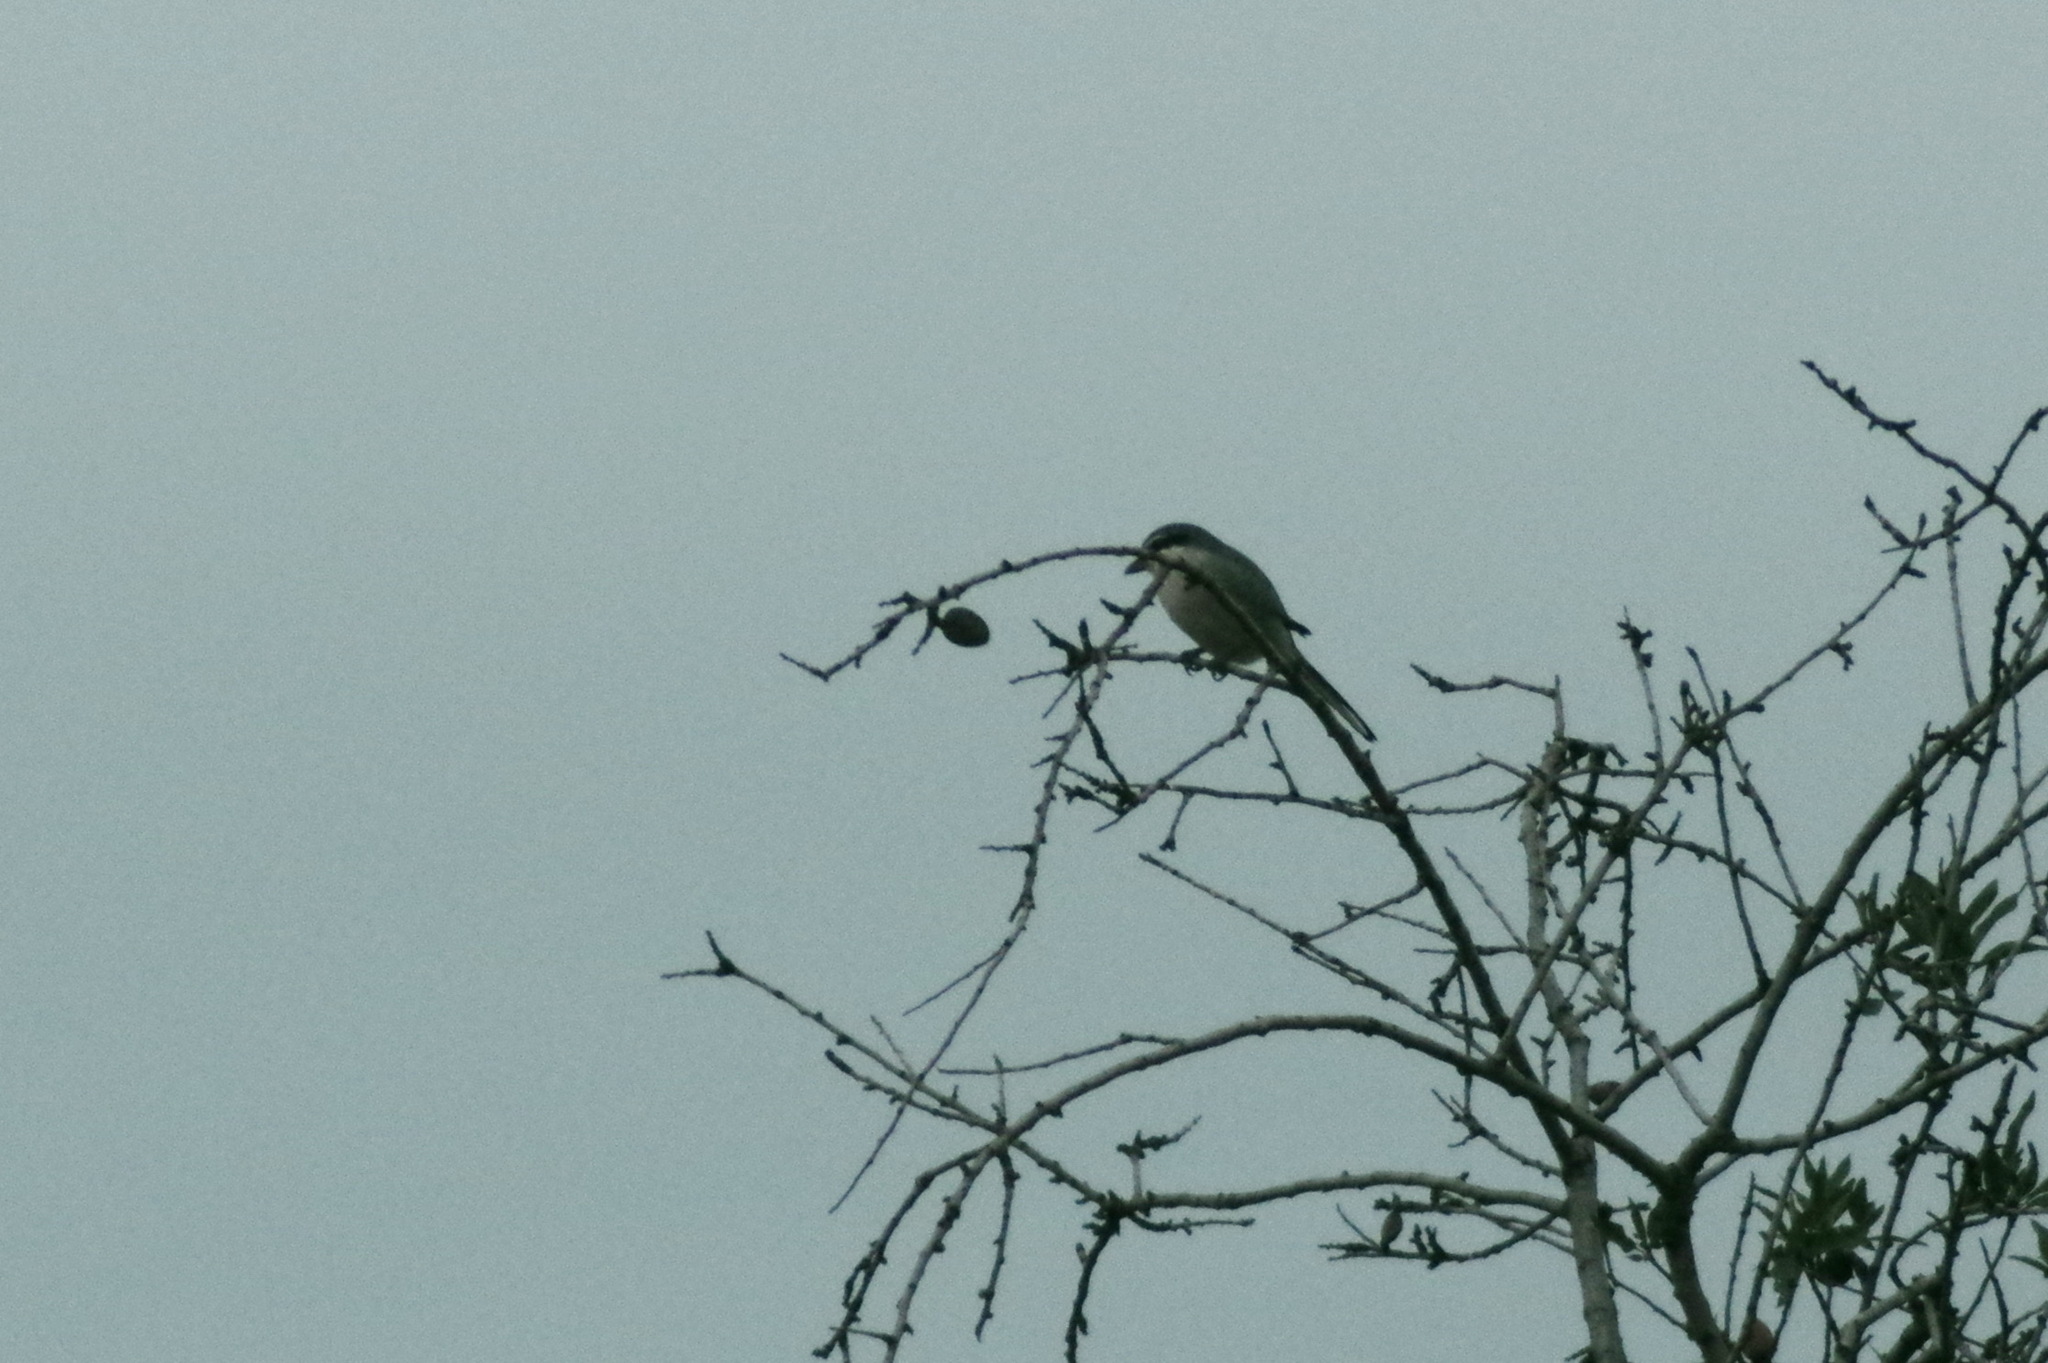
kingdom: Animalia
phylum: Chordata
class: Aves
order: Passeriformes
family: Laniidae
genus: Lanius
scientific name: Lanius meridionalis
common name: Iberian grey shrike
